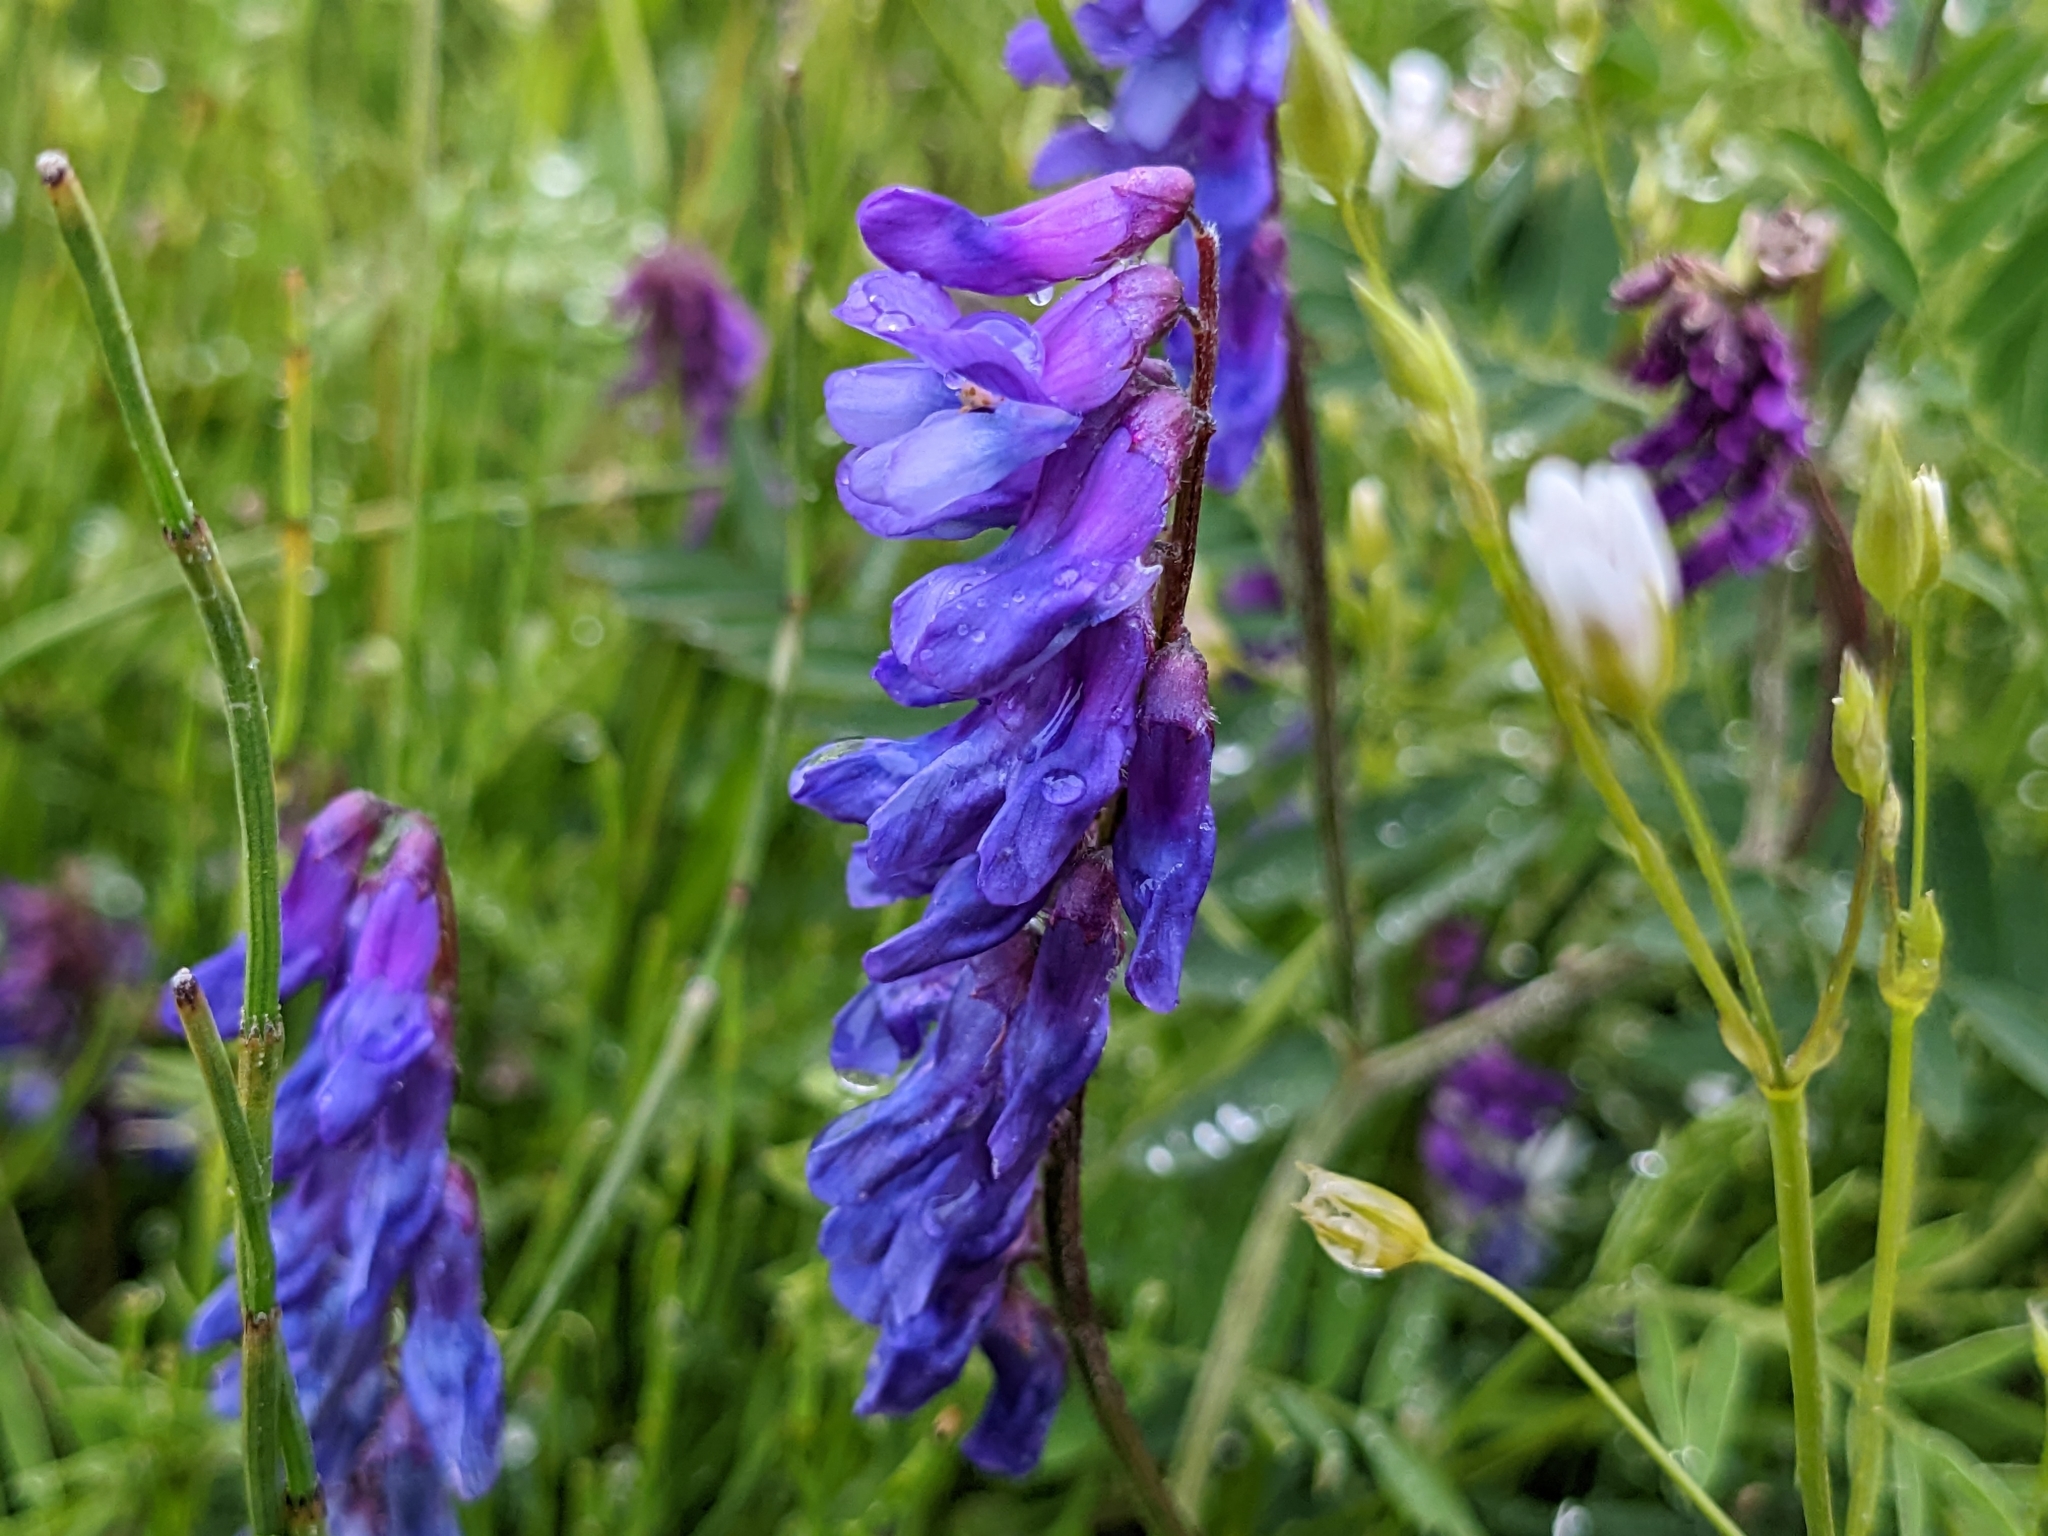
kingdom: Plantae
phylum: Tracheophyta
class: Magnoliopsida
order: Fabales
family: Fabaceae
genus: Vicia
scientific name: Vicia cracca
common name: Bird vetch
